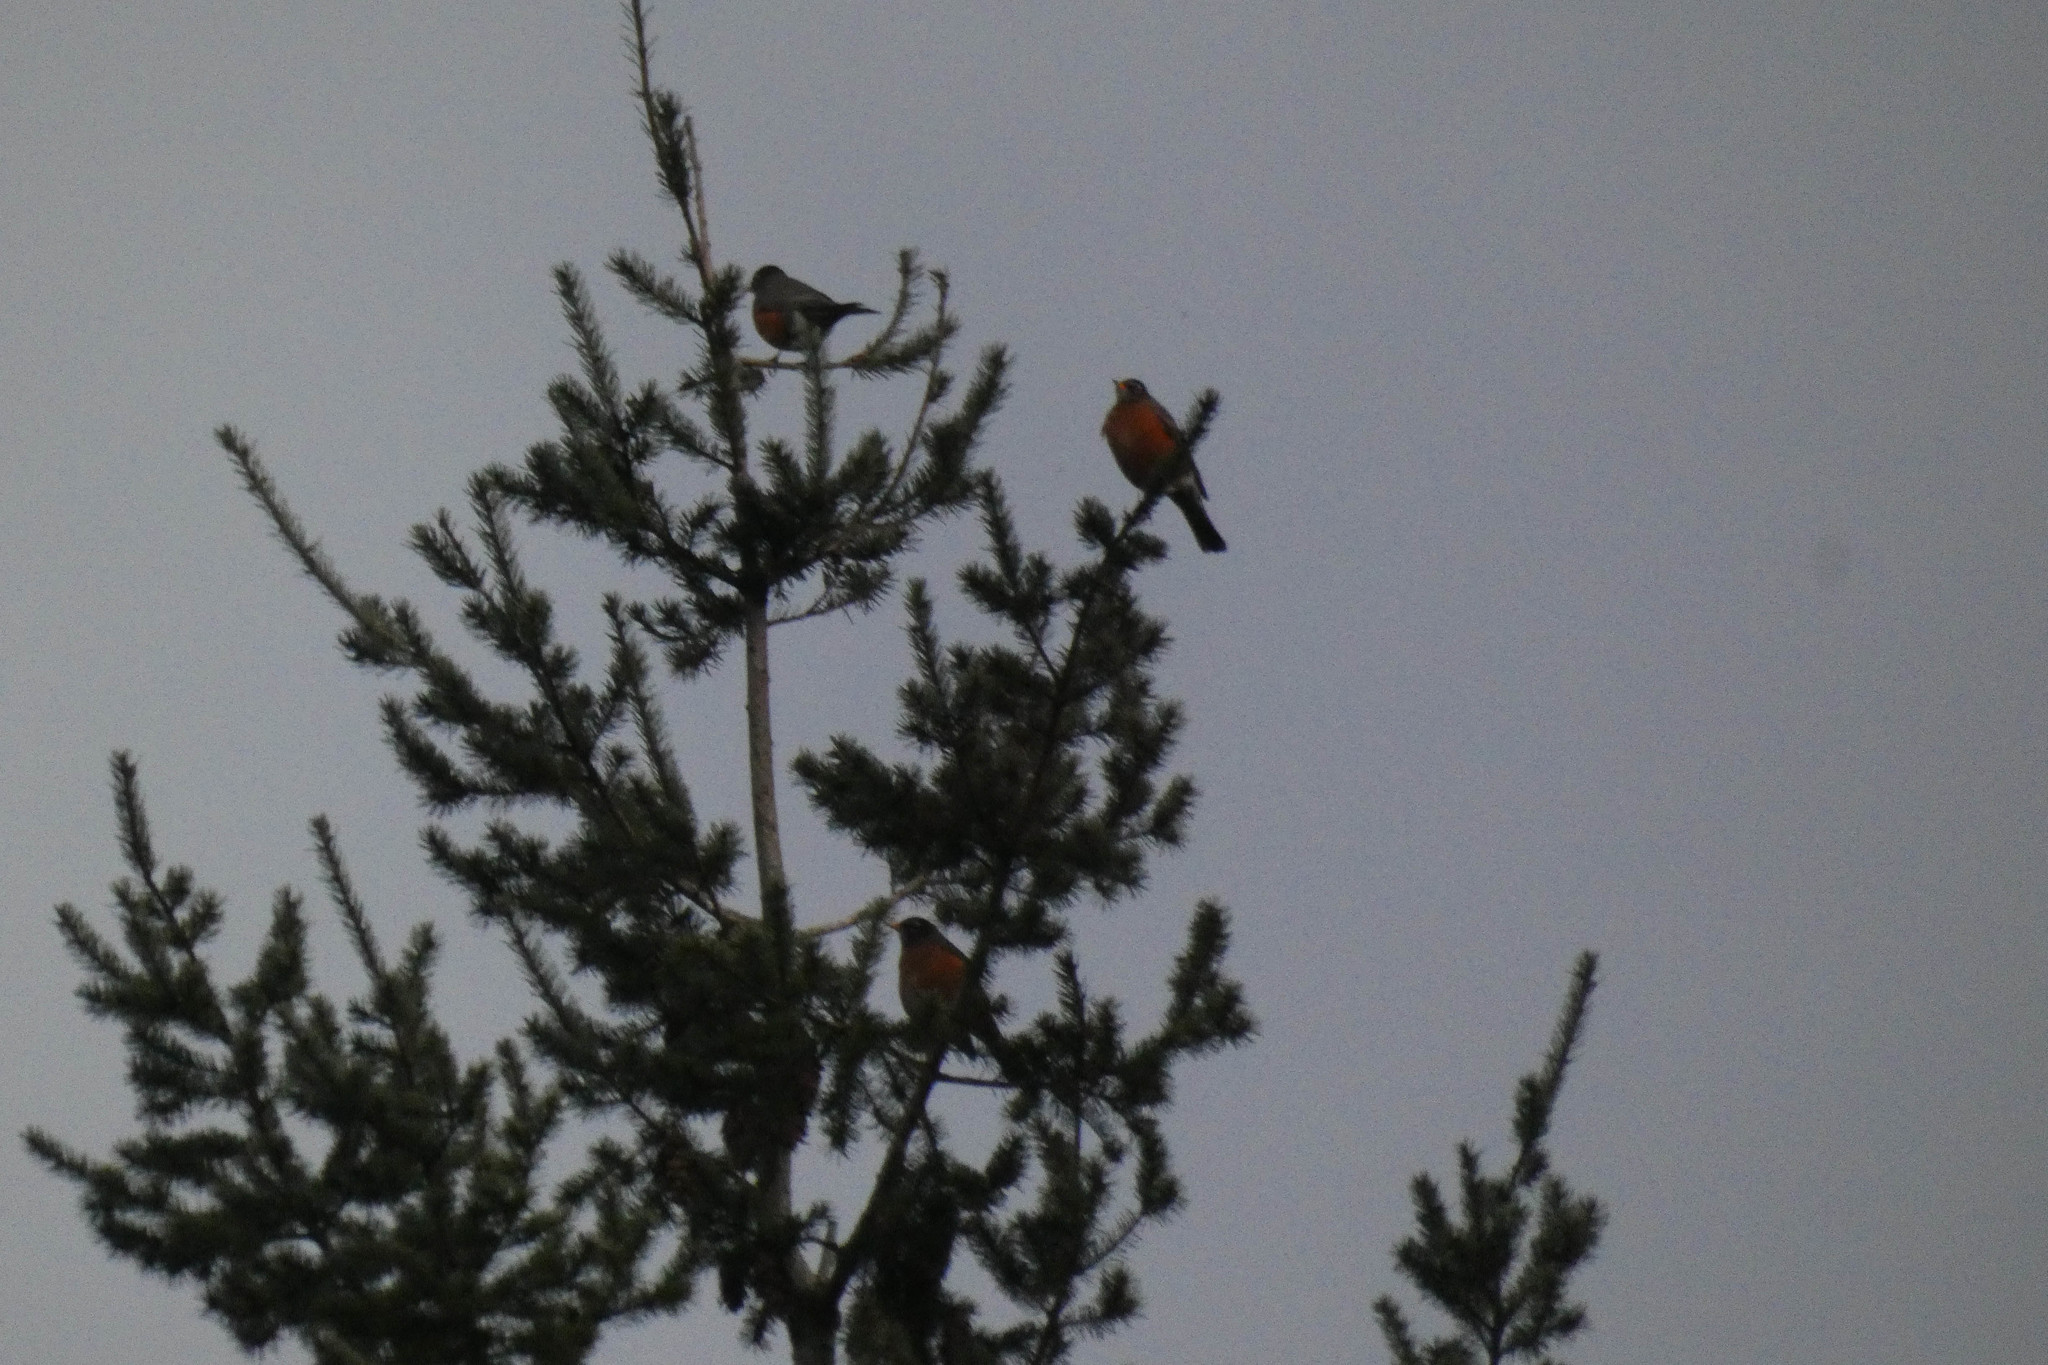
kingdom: Animalia
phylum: Chordata
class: Aves
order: Passeriformes
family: Turdidae
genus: Turdus
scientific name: Turdus migratorius
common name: American robin
